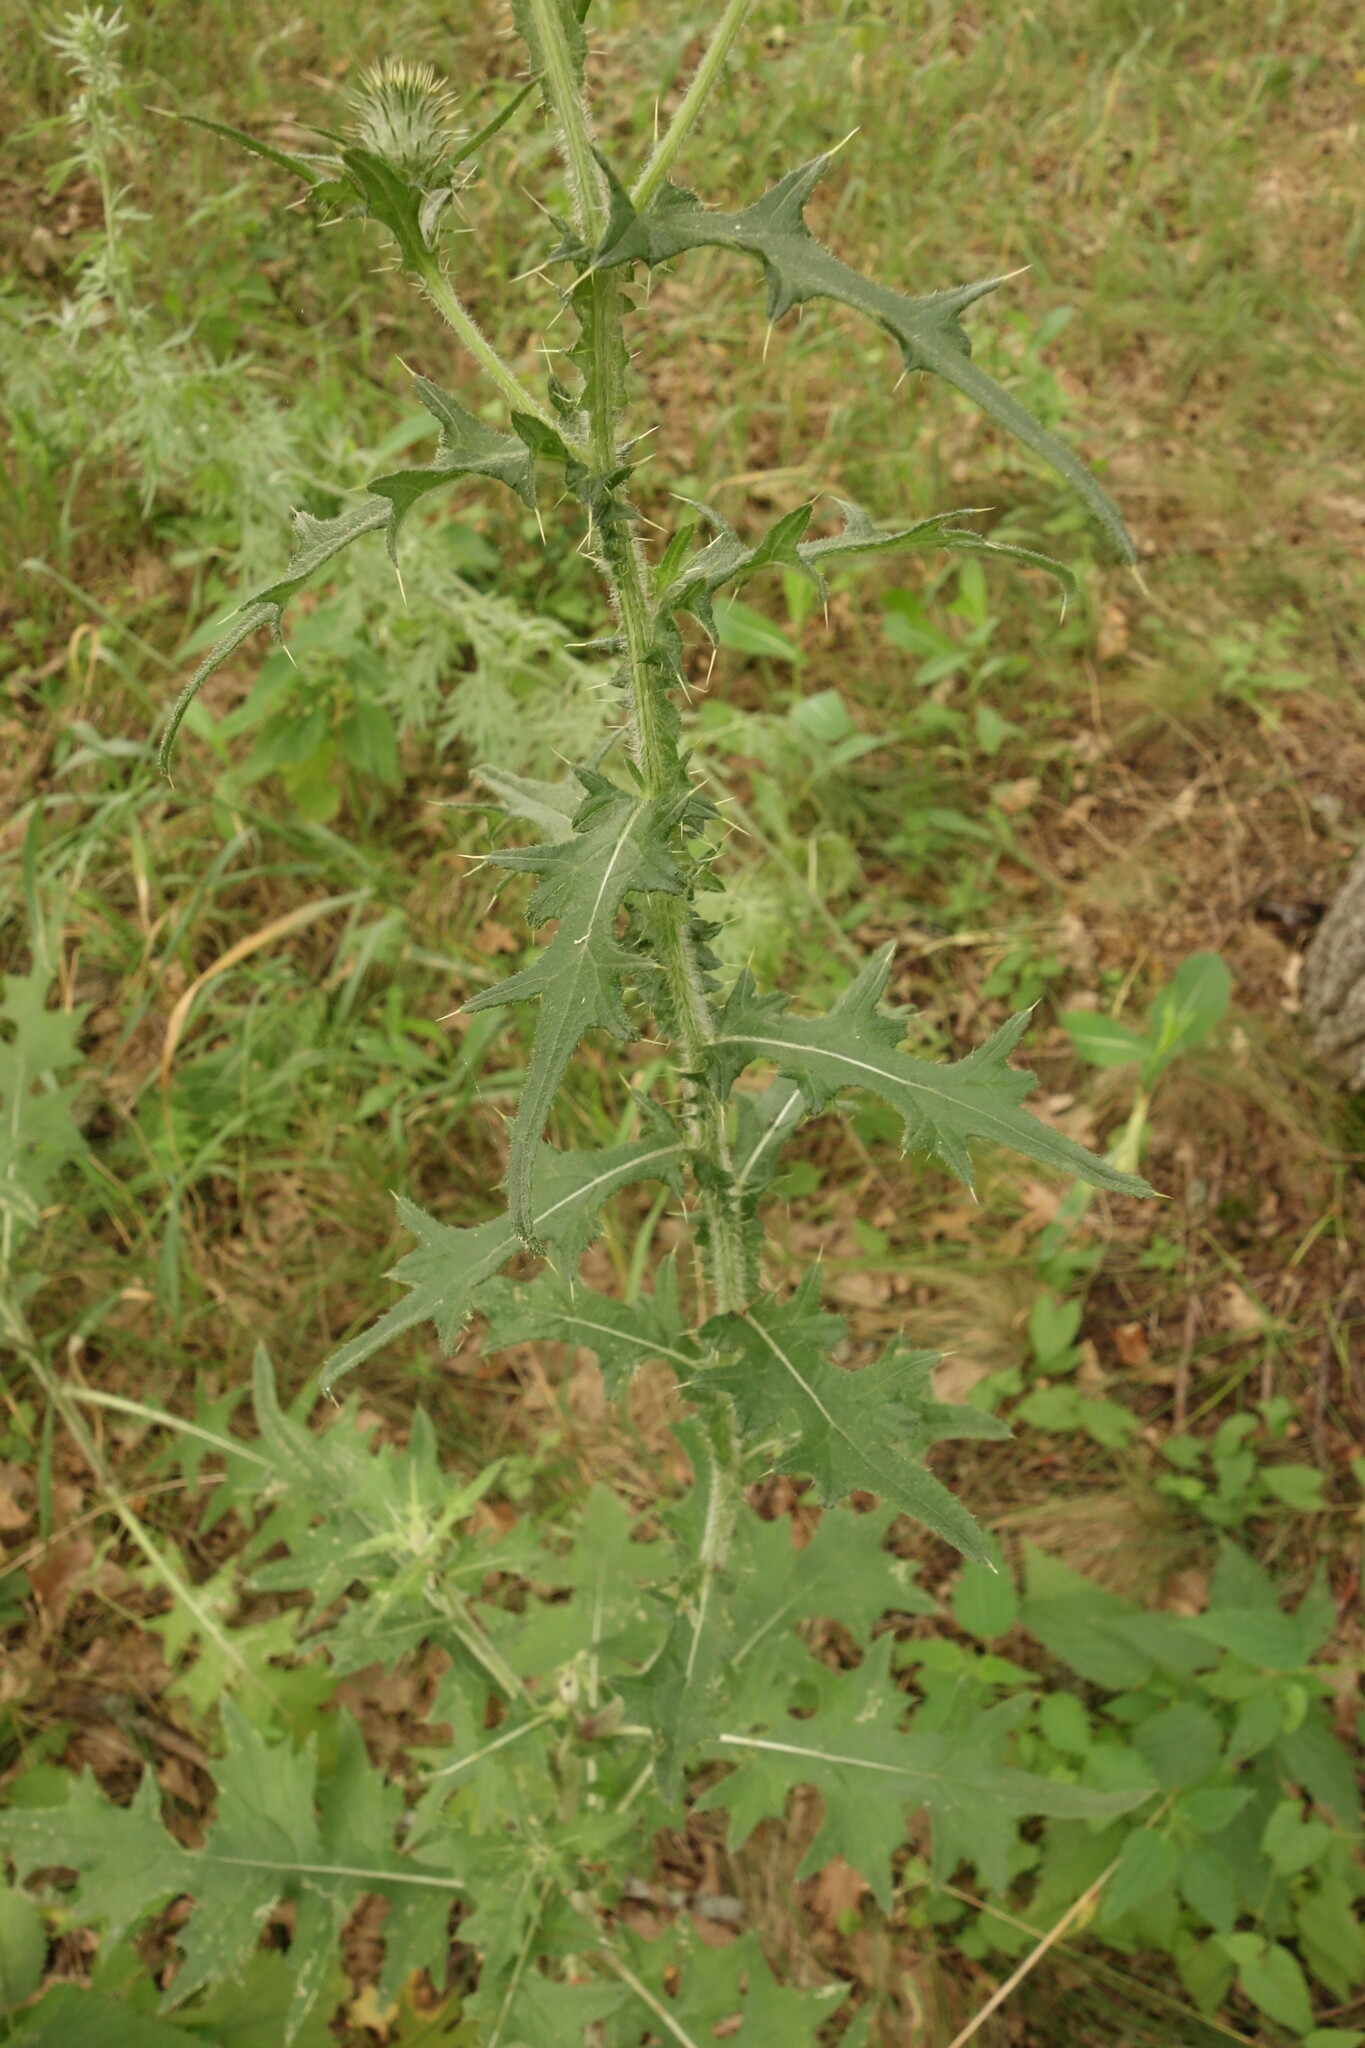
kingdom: Plantae
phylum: Tracheophyta
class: Magnoliopsida
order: Asterales
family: Asteraceae
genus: Cirsium
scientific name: Cirsium vulgare
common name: Bull thistle
